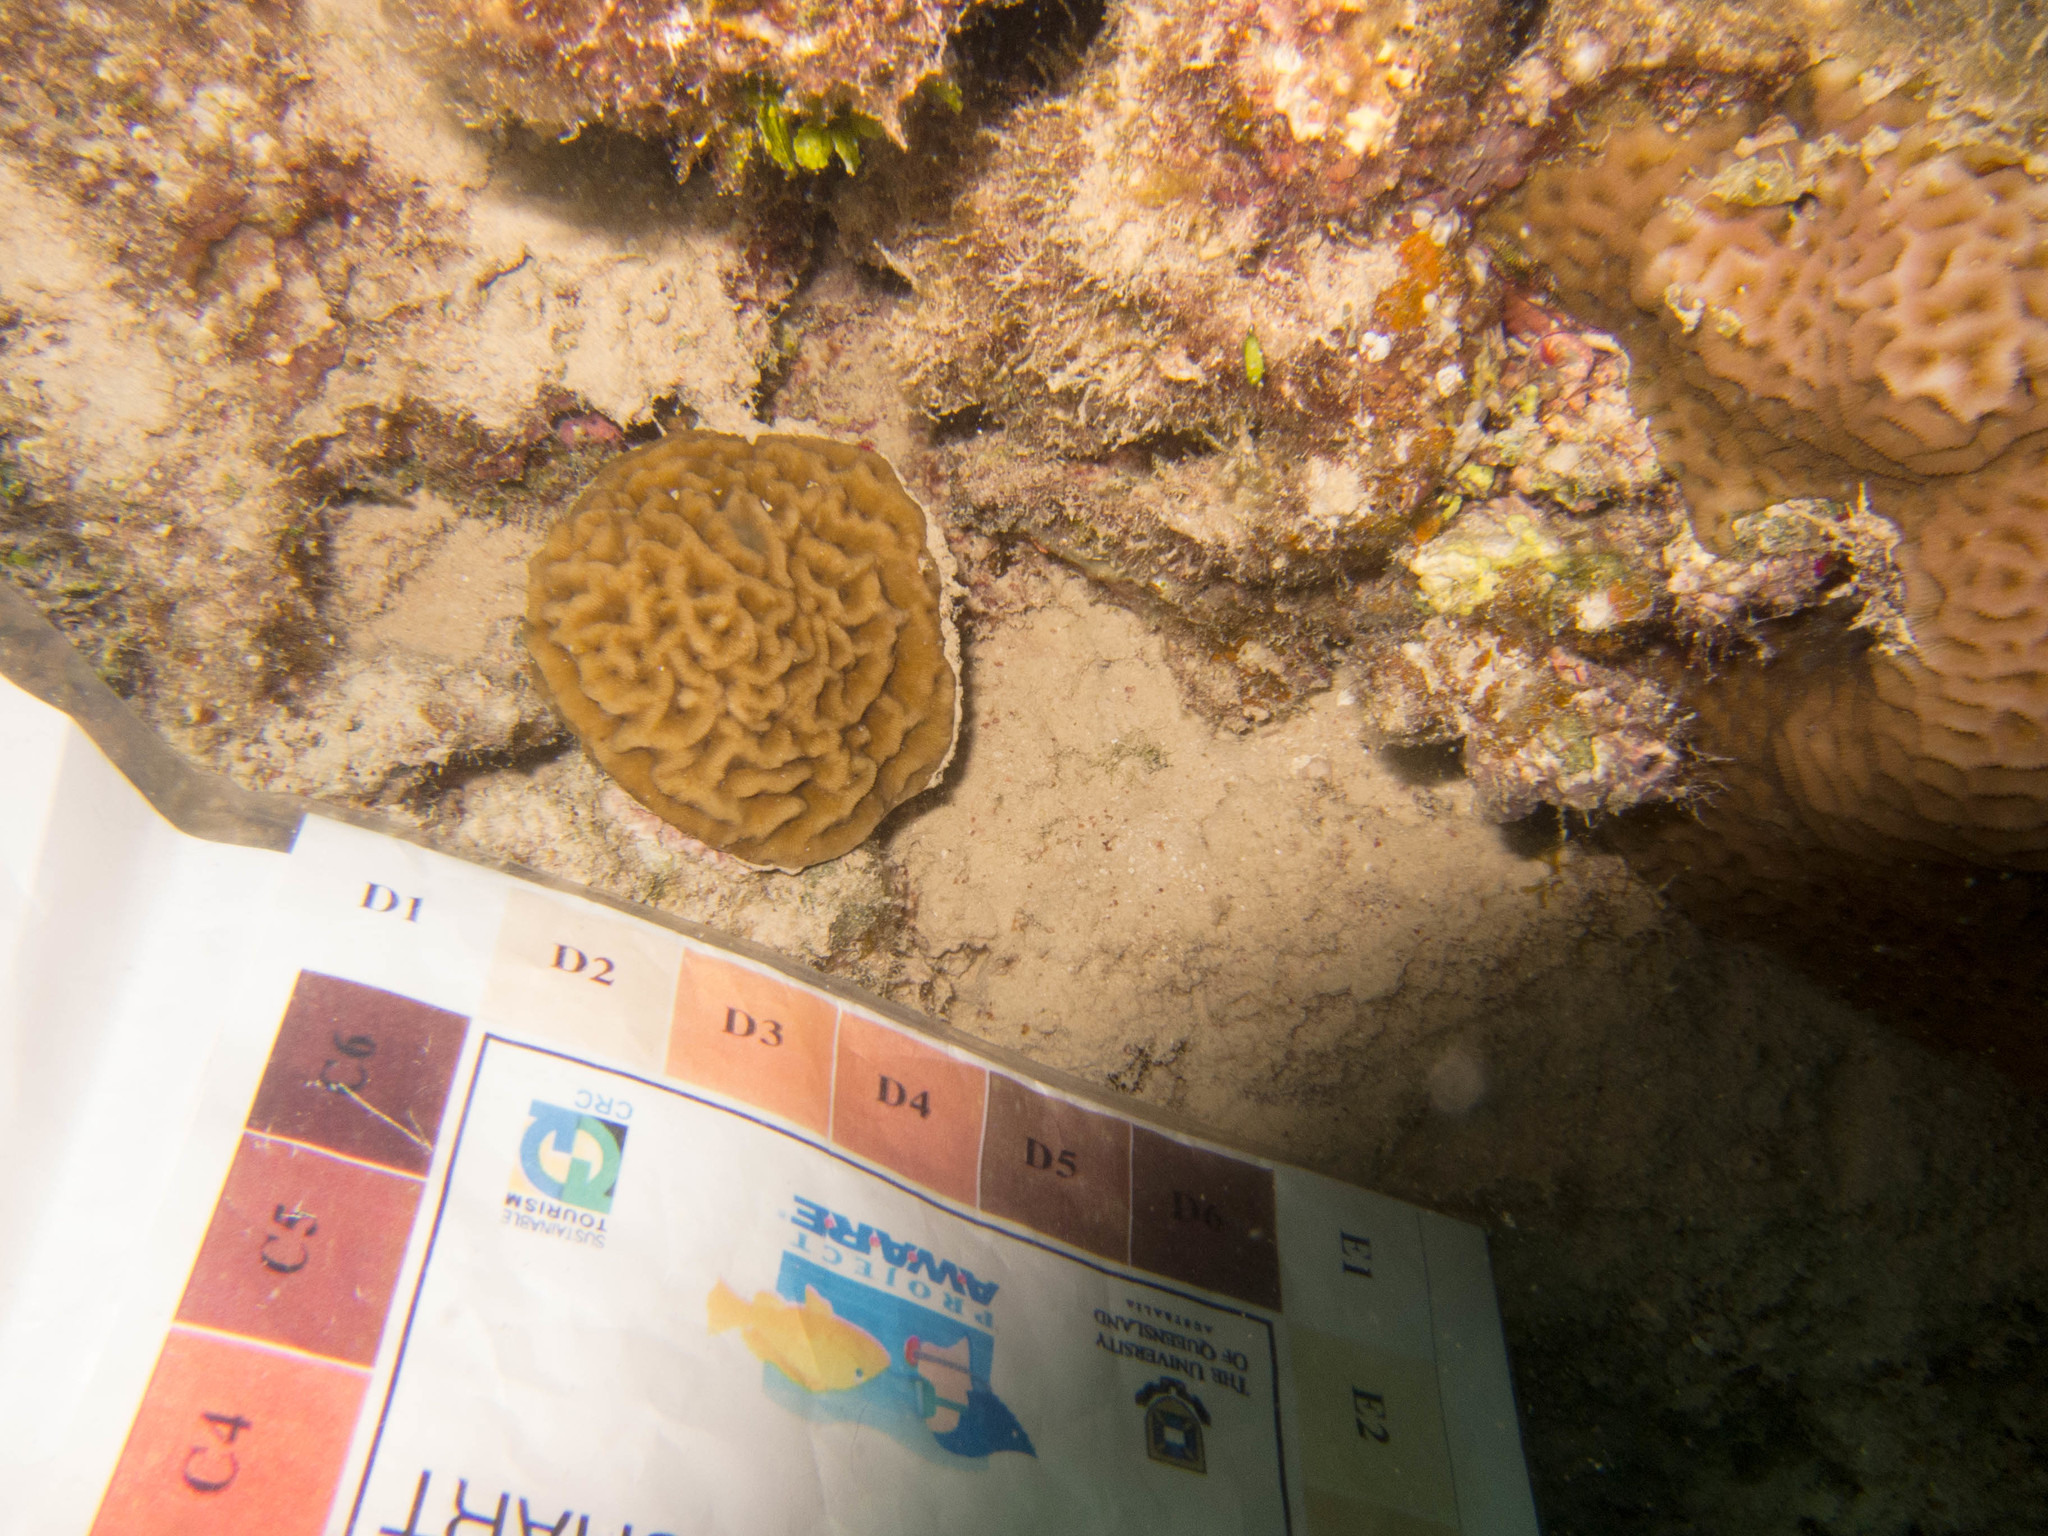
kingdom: Animalia
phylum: Cnidaria
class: Anthozoa
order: Scleractinia
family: Agariciidae
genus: Leptoseris
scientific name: Leptoseris mycetoseroides
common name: Porcelain coral
